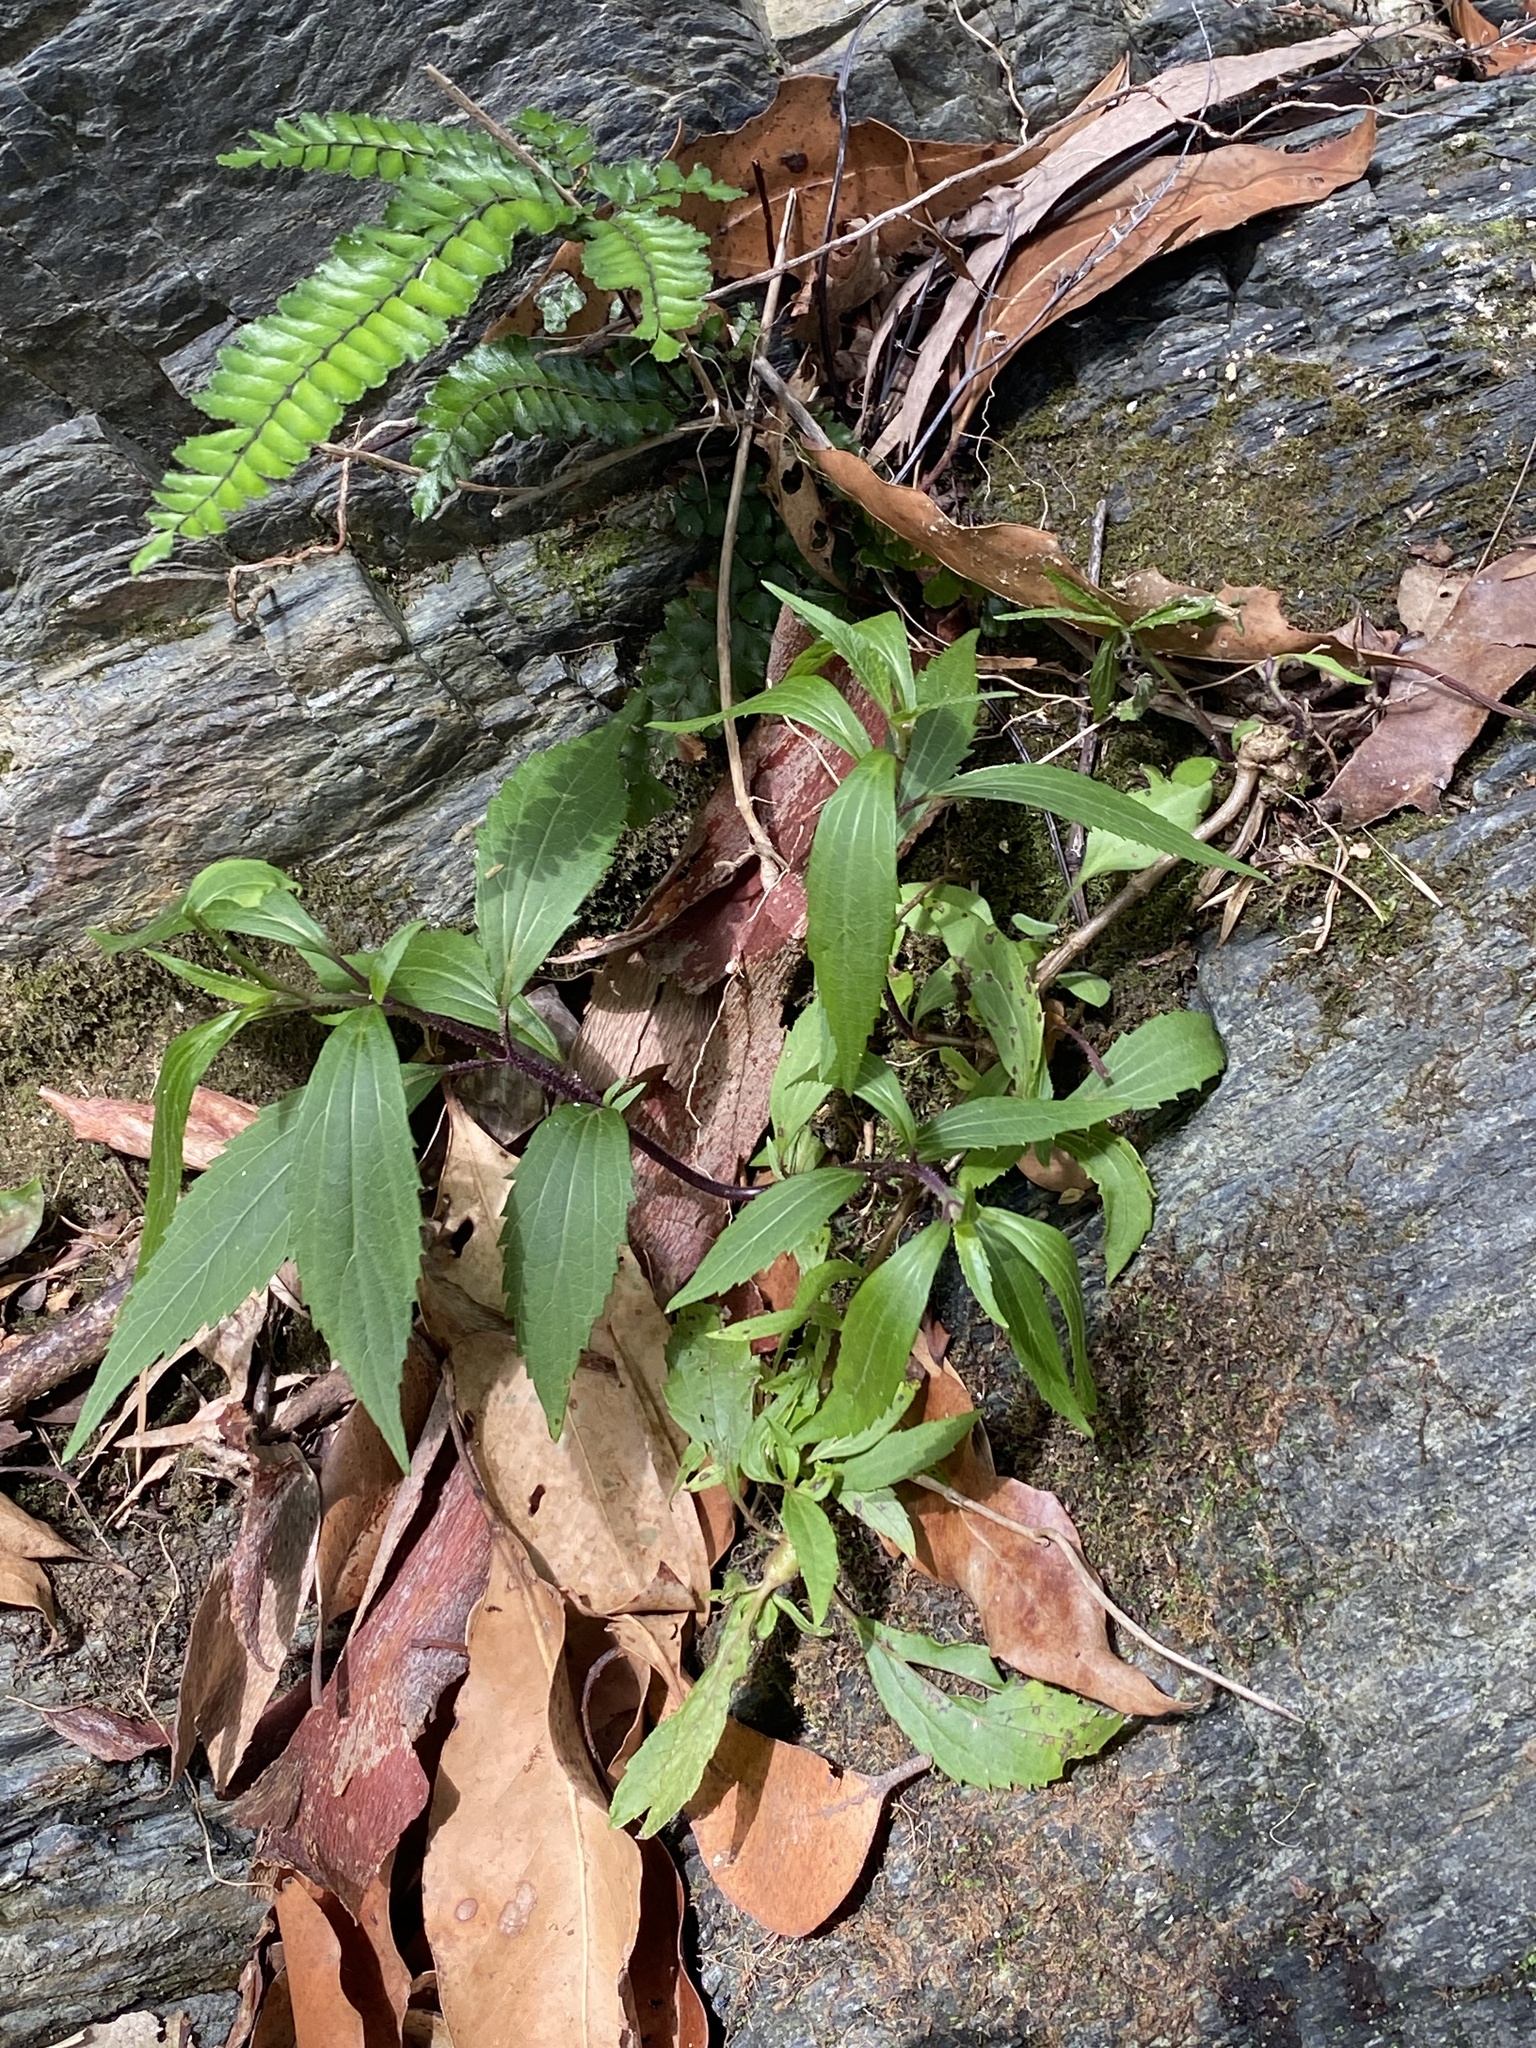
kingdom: Plantae
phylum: Tracheophyta
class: Magnoliopsida
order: Asterales
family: Asteraceae
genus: Ageratina
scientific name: Ageratina riparia
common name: Creeping croftonweed
